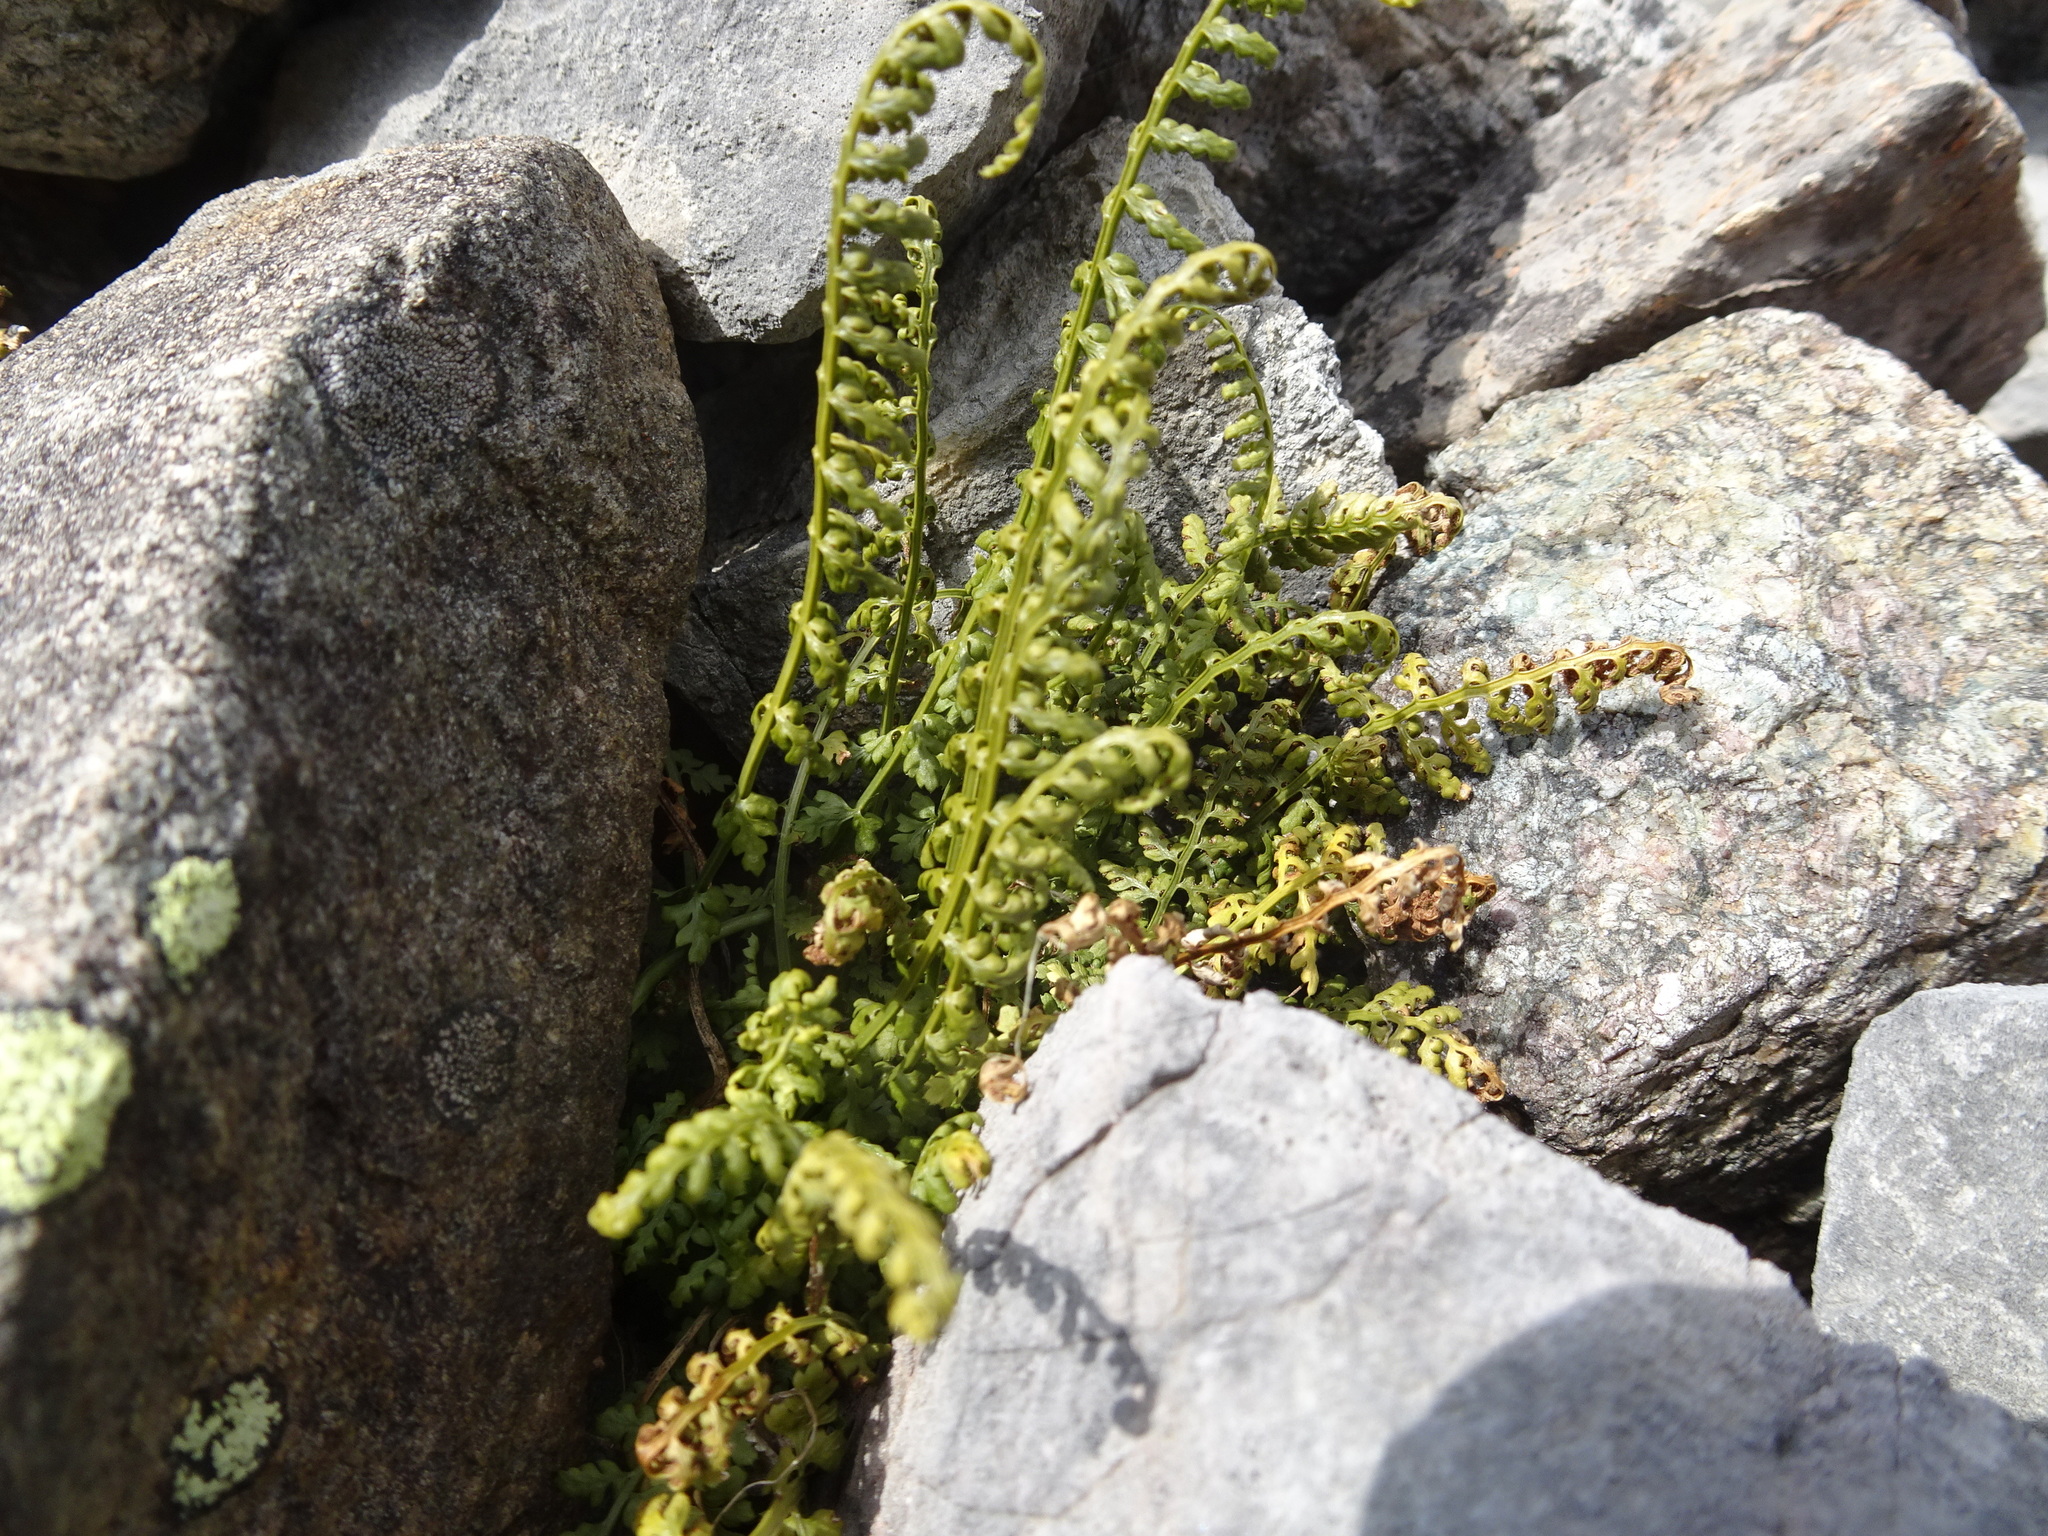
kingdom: Plantae
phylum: Tracheophyta
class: Polypodiopsida
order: Polypodiales
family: Aspleniaceae
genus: Asplenium
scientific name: Asplenium fontanum
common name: Fountain spleenwort
